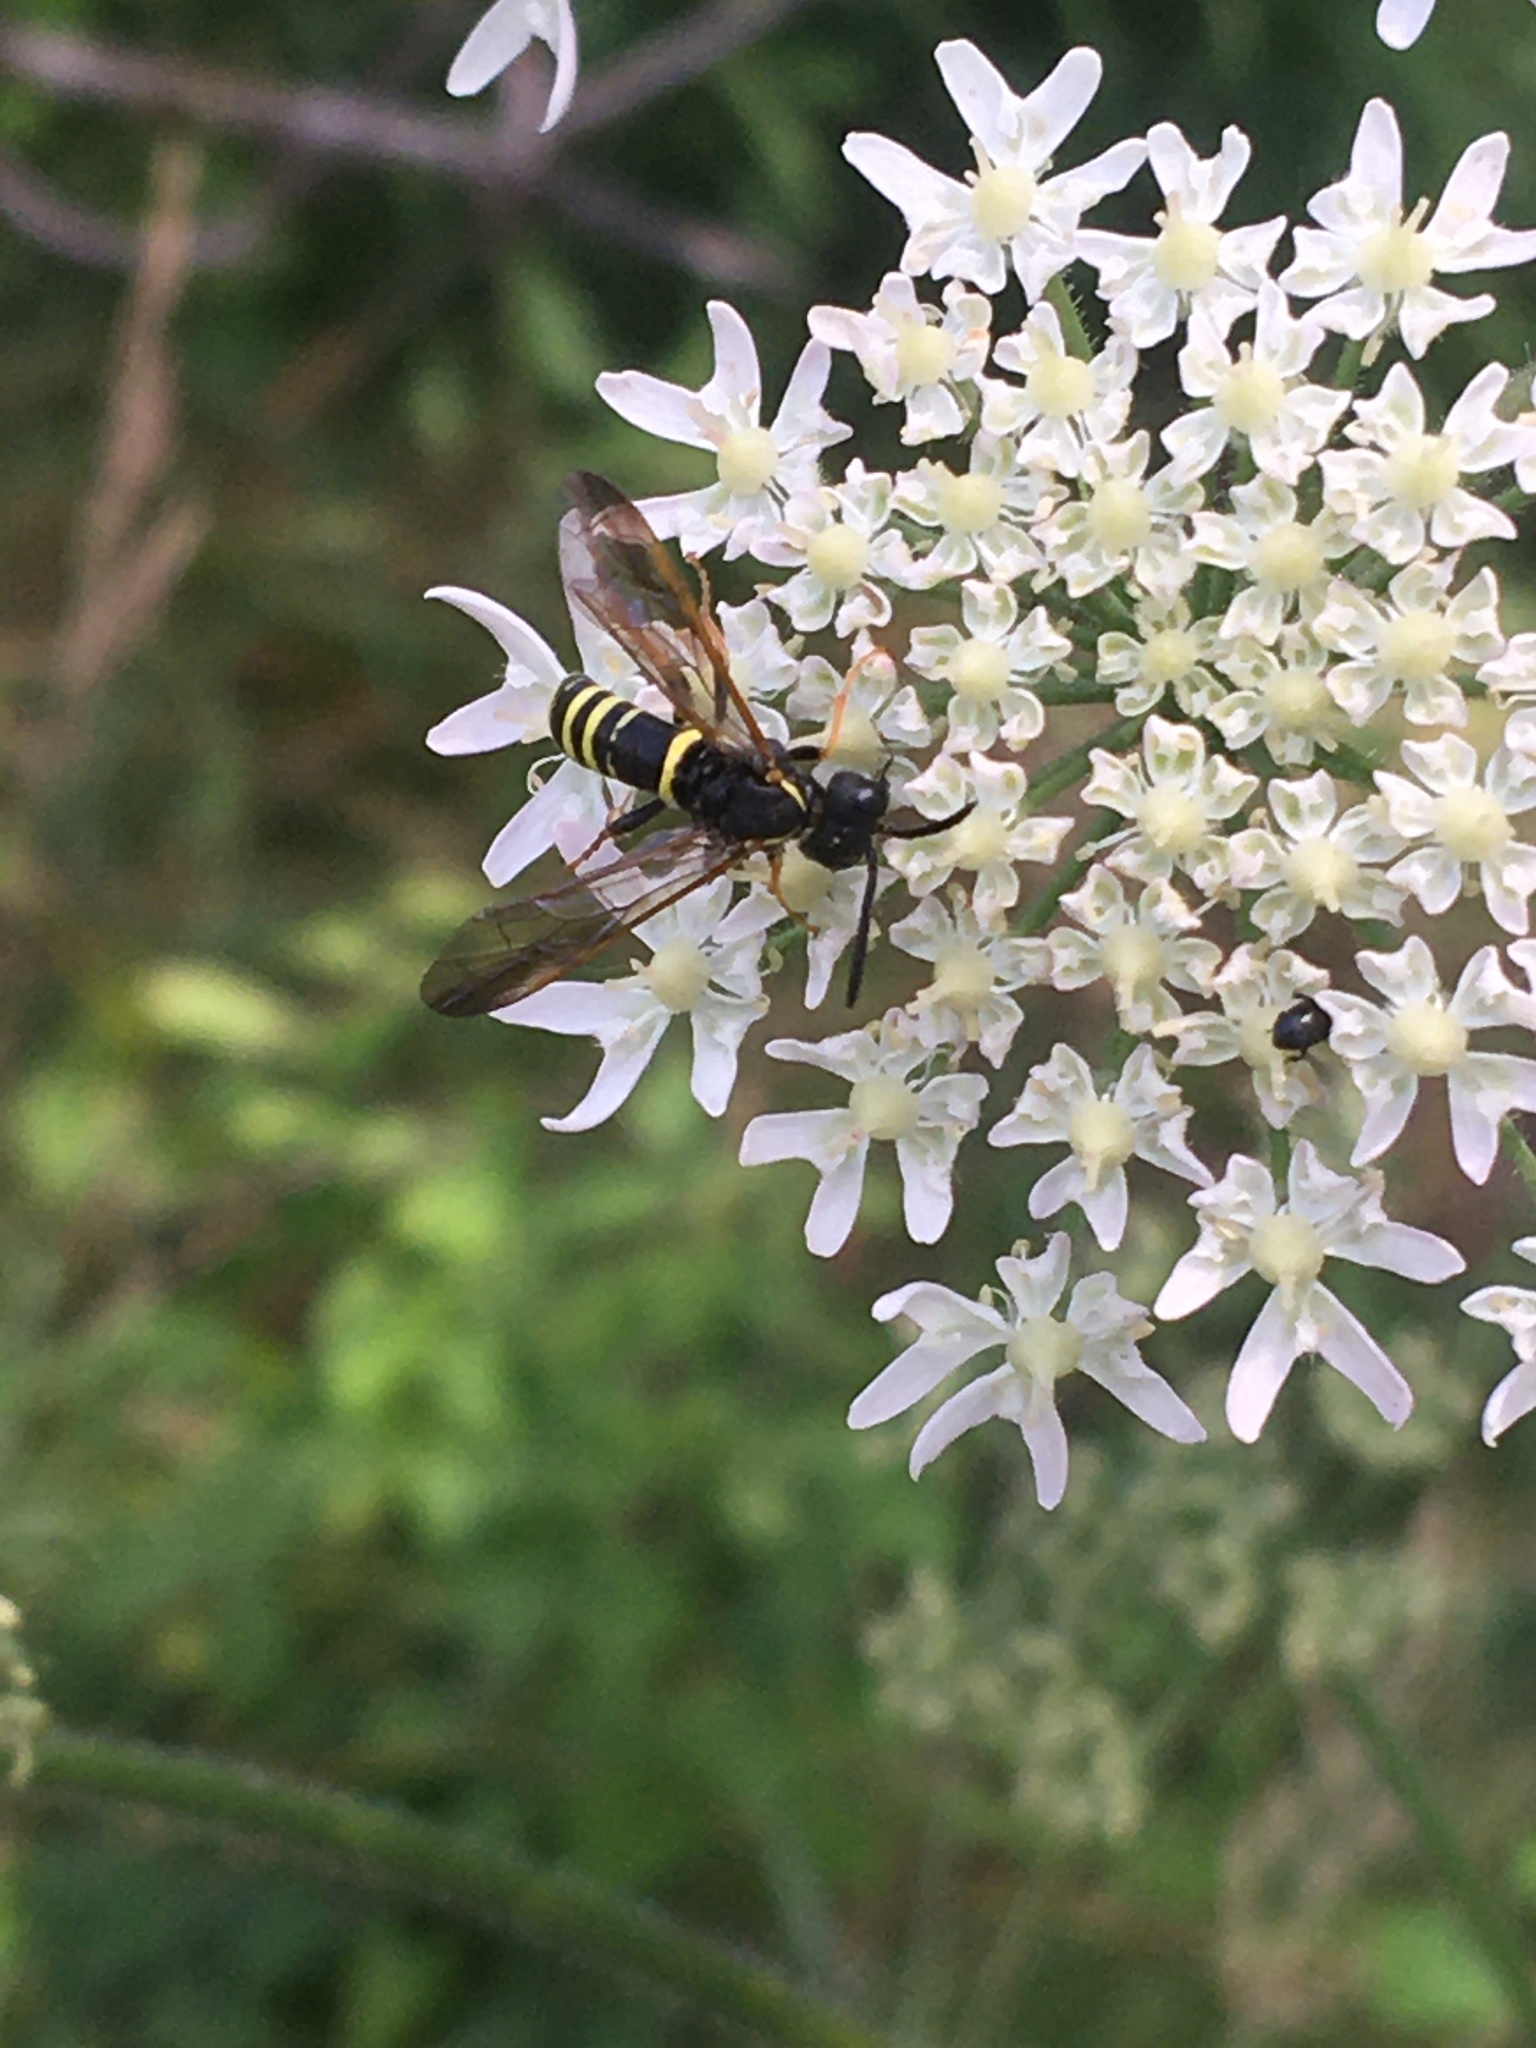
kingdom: Animalia
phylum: Arthropoda
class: Insecta
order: Hymenoptera
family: Tenthredinidae
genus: Tenthredo
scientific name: Tenthredo vespa
